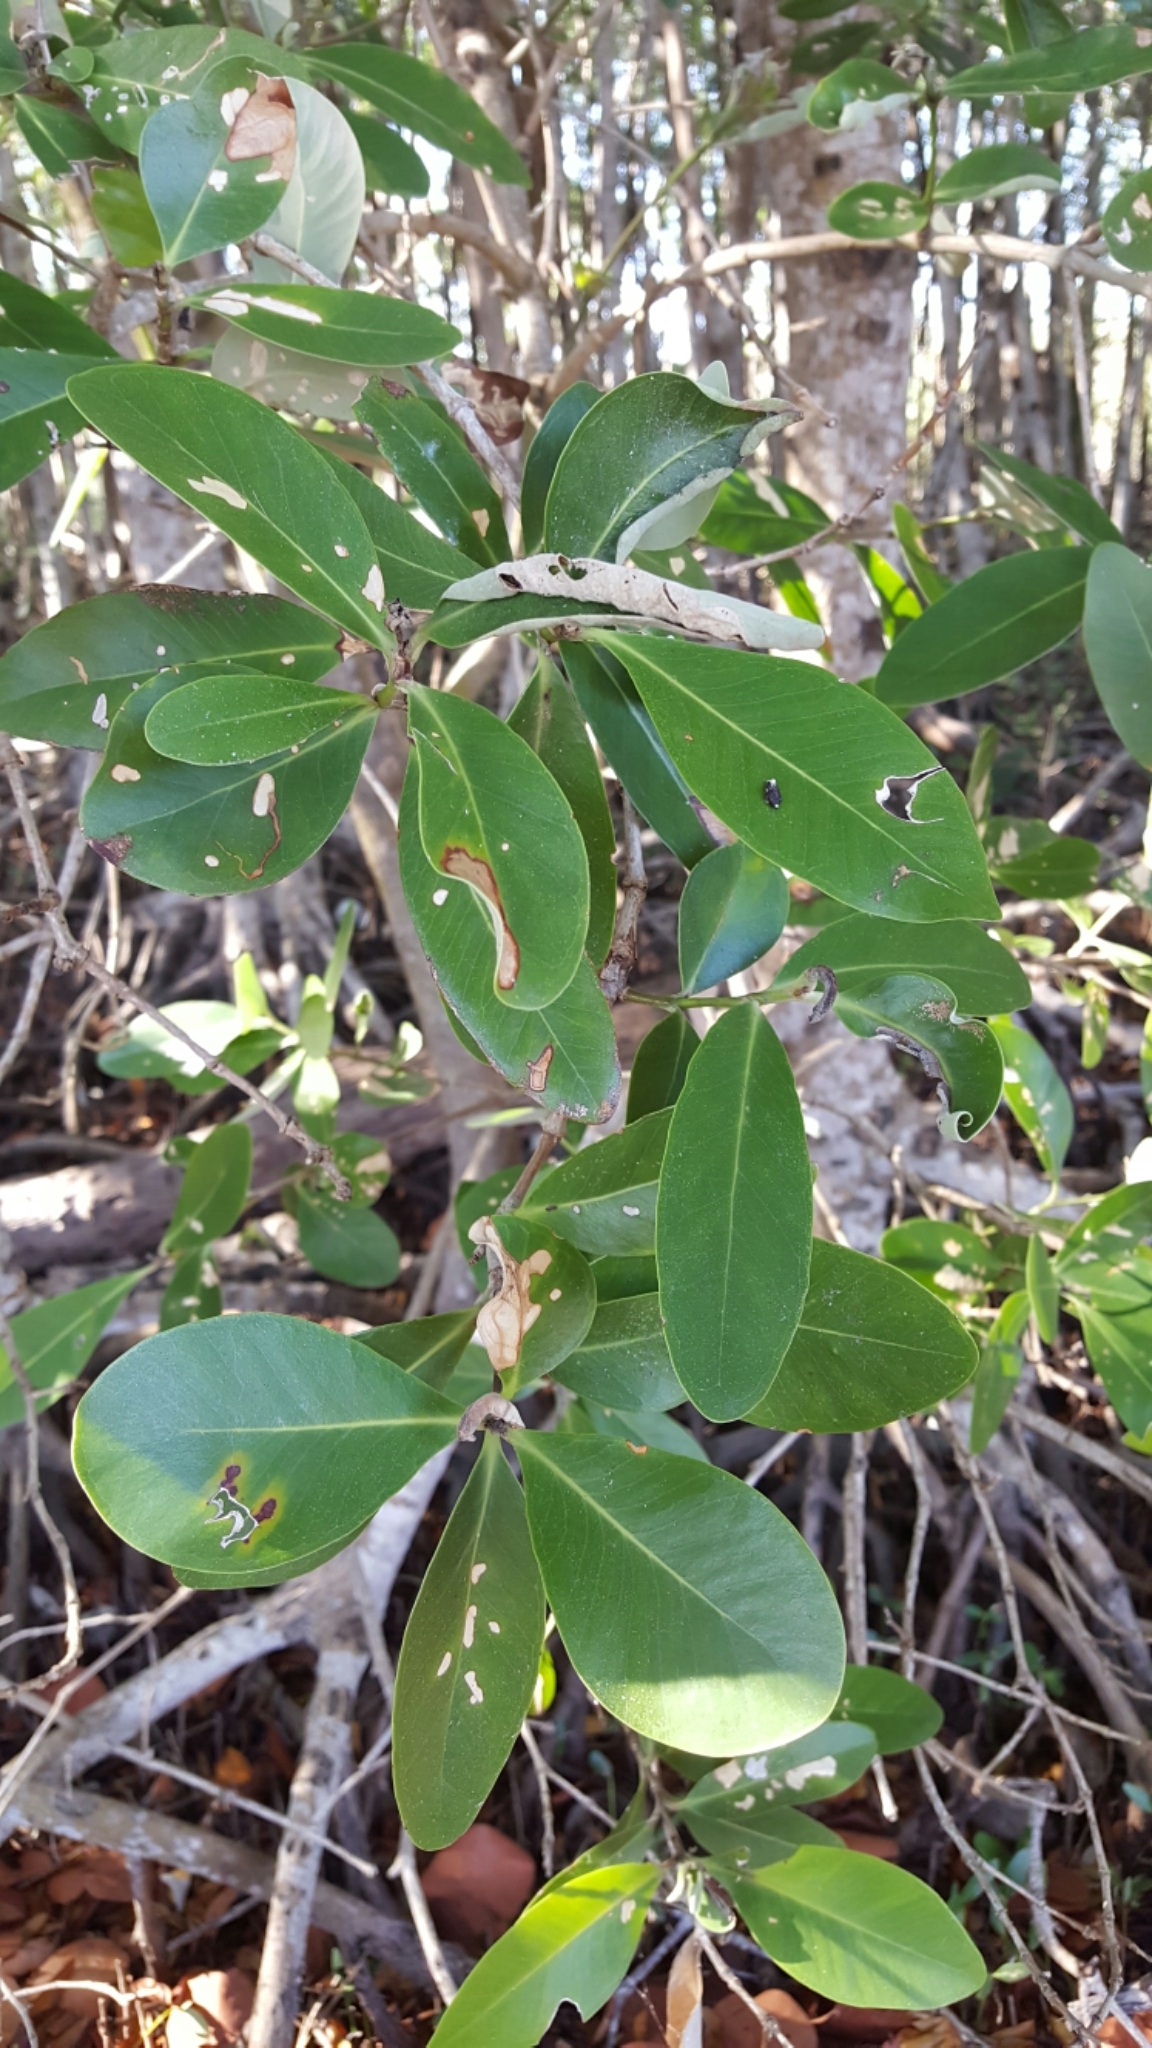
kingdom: Plantae
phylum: Tracheophyta
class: Magnoliopsida
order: Lamiales
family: Acanthaceae
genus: Avicennia
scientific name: Avicennia germinans
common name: Black mangrove
